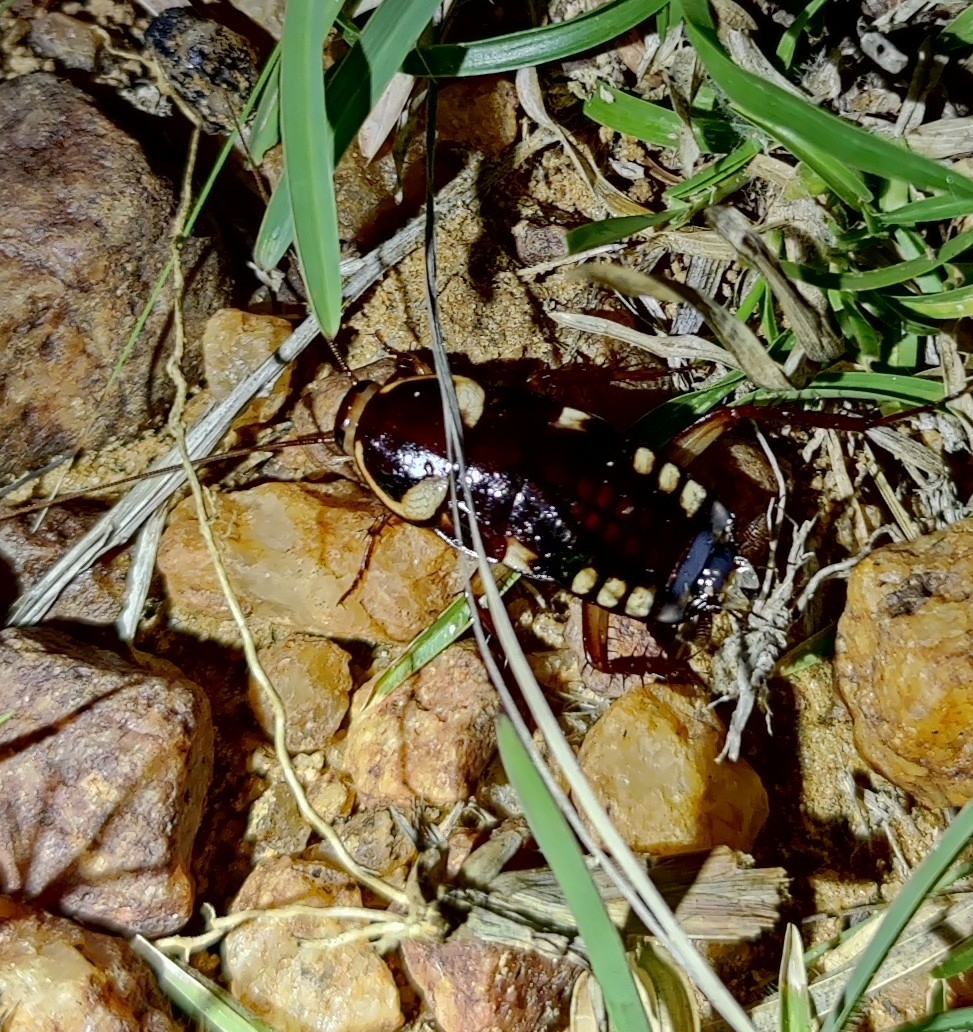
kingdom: Animalia
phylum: Arthropoda
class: Insecta
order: Blattodea
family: Blattidae
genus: Neostylopyga
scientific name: Neostylopyga ornata
